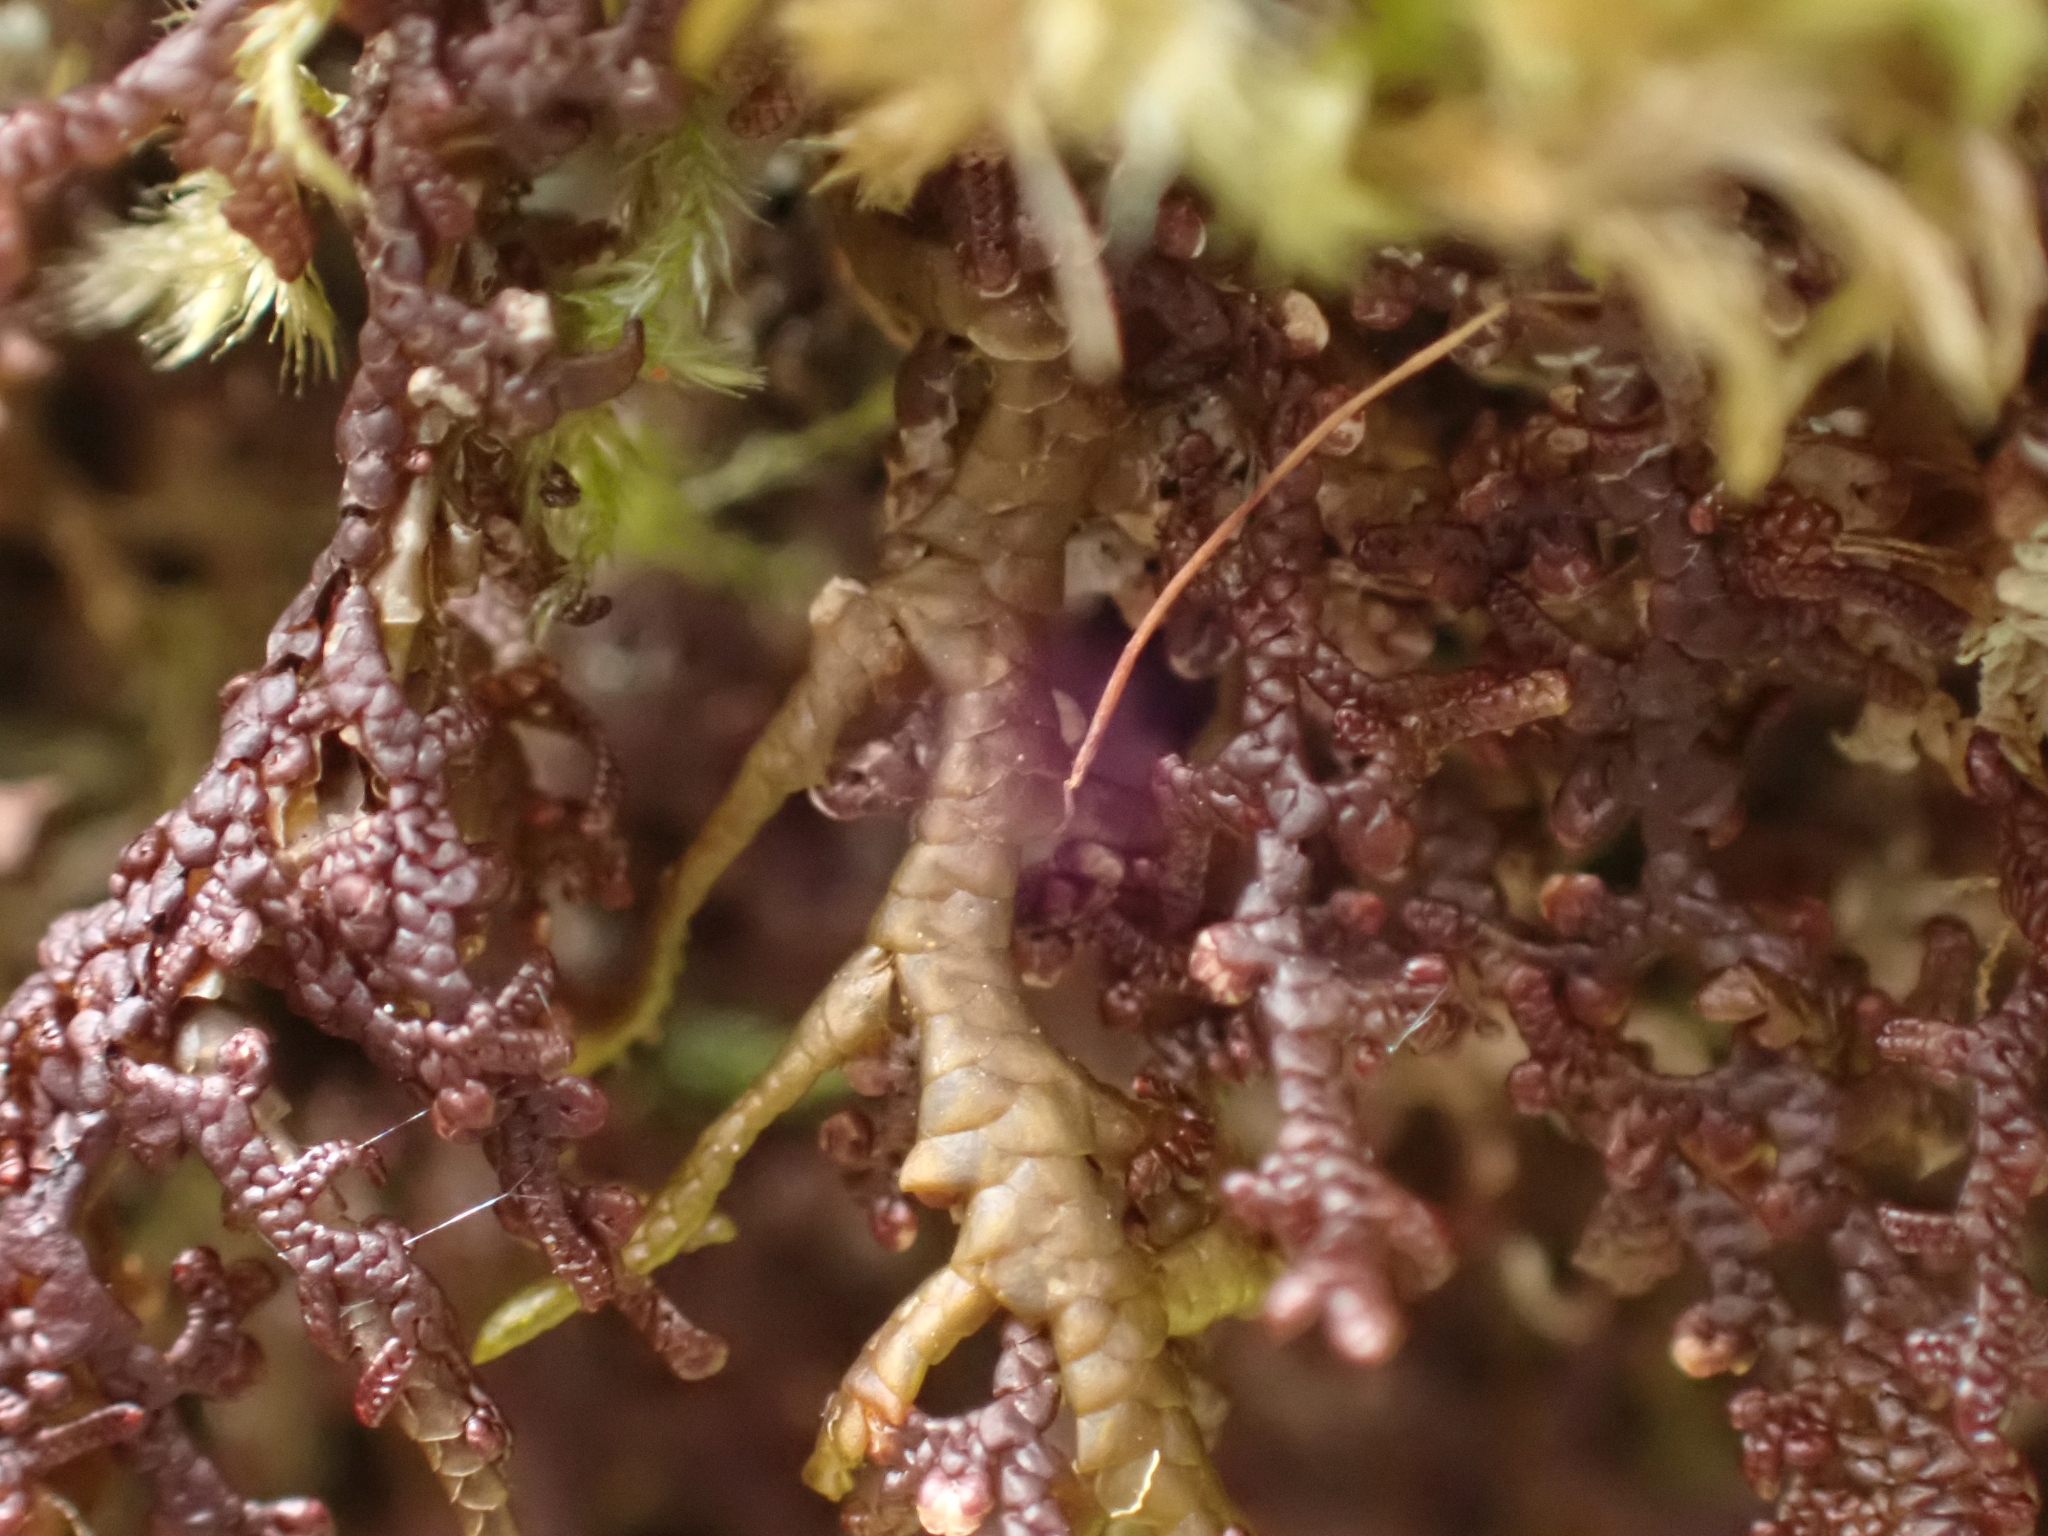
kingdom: Plantae
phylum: Marchantiophyta
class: Jungermanniopsida
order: Porellales
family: Porellaceae
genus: Porella
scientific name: Porella navicularis
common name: Tree ruffle liverwort
